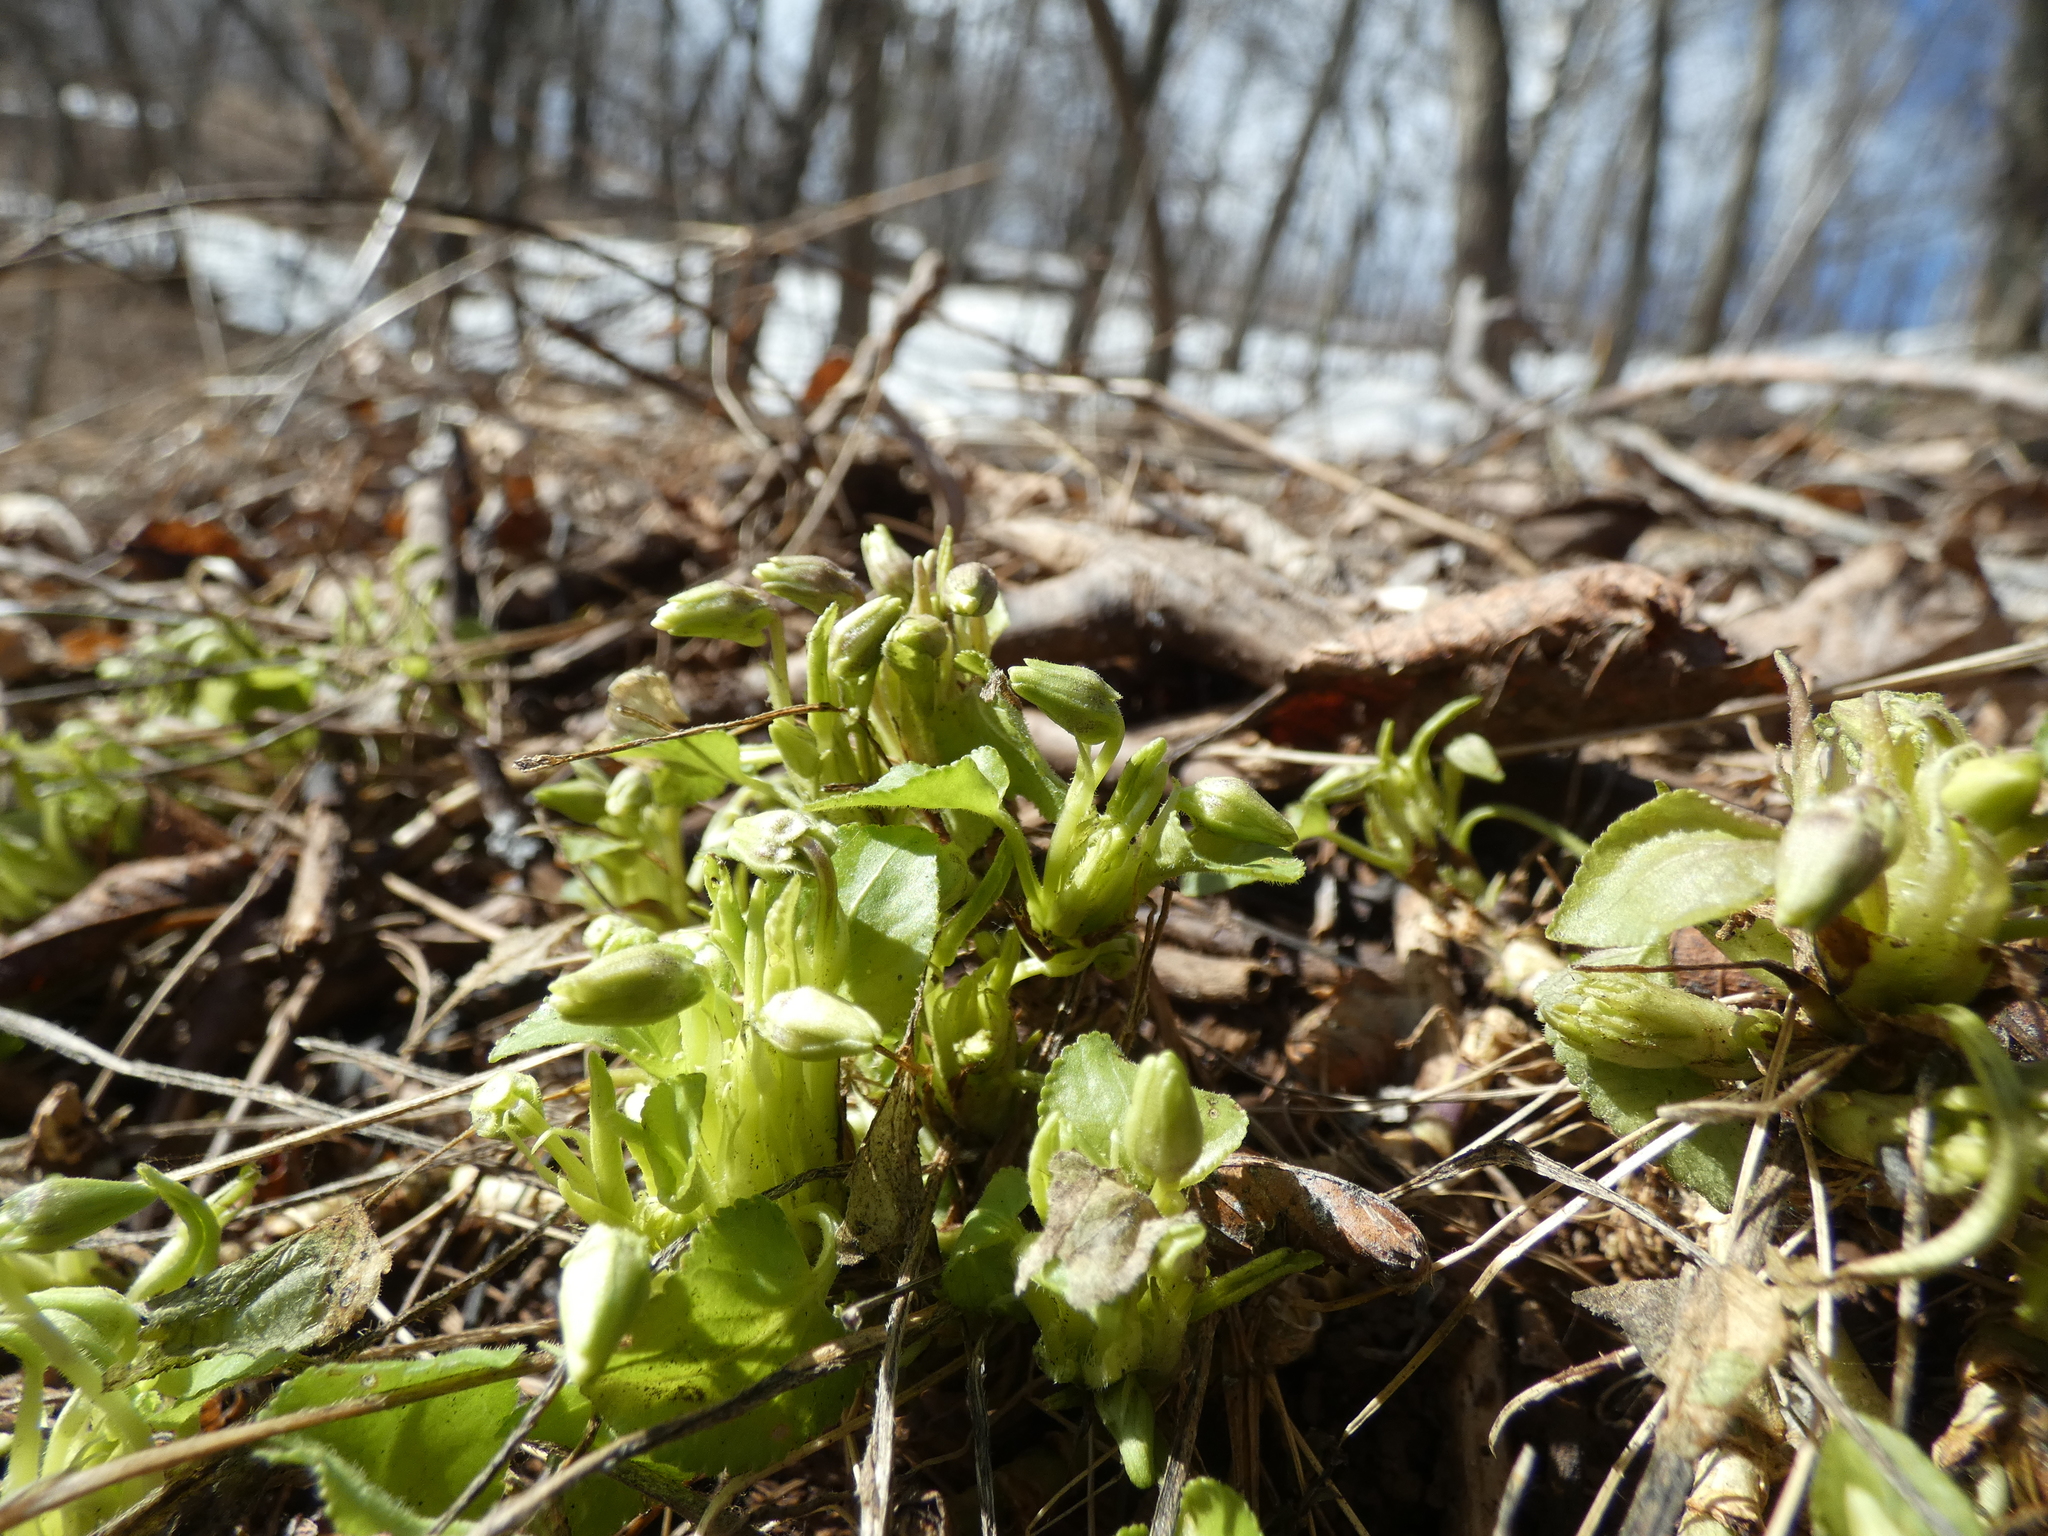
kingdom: Plantae
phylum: Tracheophyta
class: Magnoliopsida
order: Malpighiales
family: Violaceae
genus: Viola
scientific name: Viola collina
